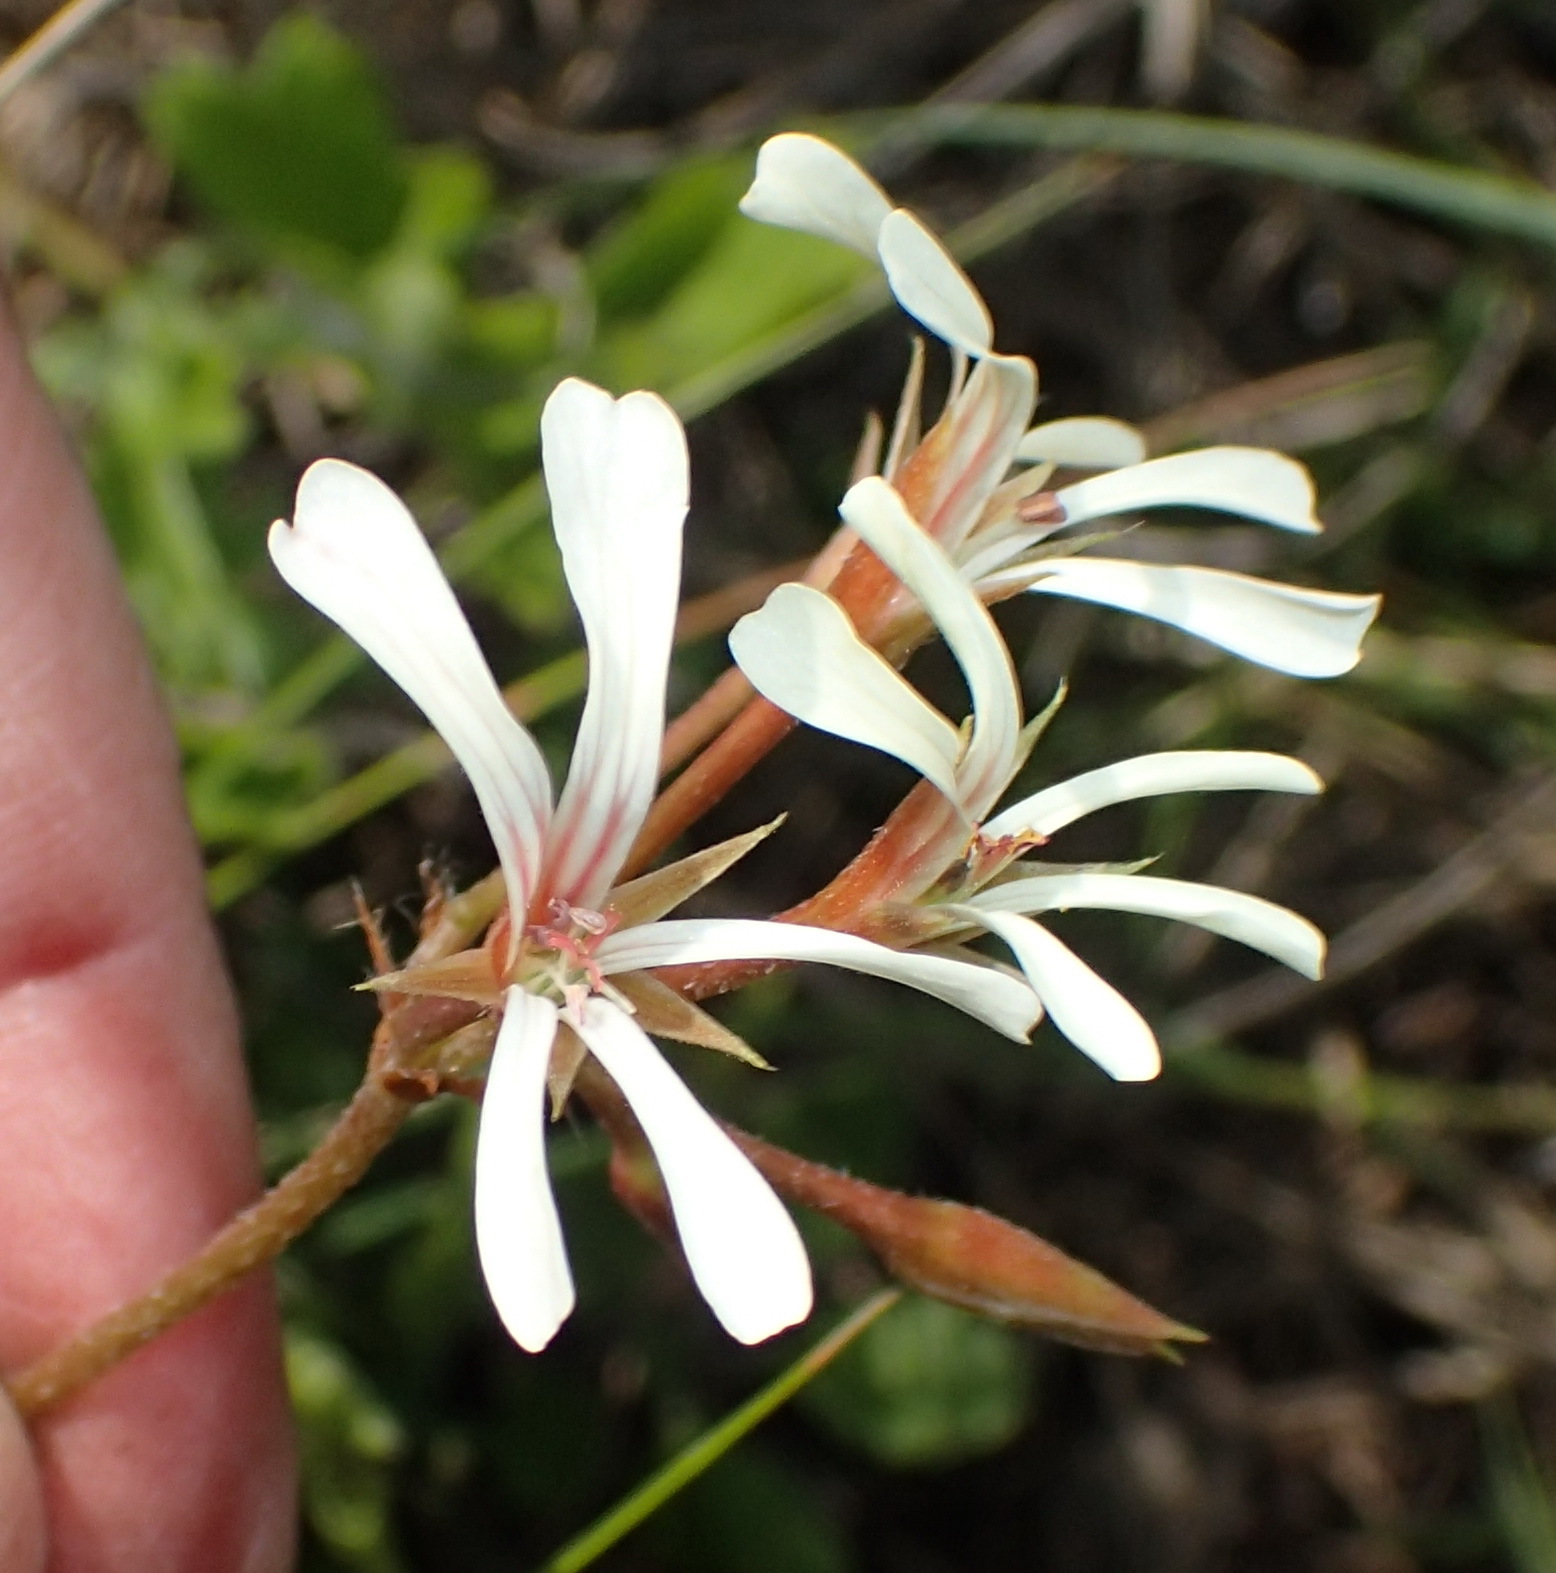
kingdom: Plantae
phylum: Tracheophyta
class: Magnoliopsida
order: Geraniales
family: Geraniaceae
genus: Pelargonium
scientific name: Pelargonium alchemilloides
